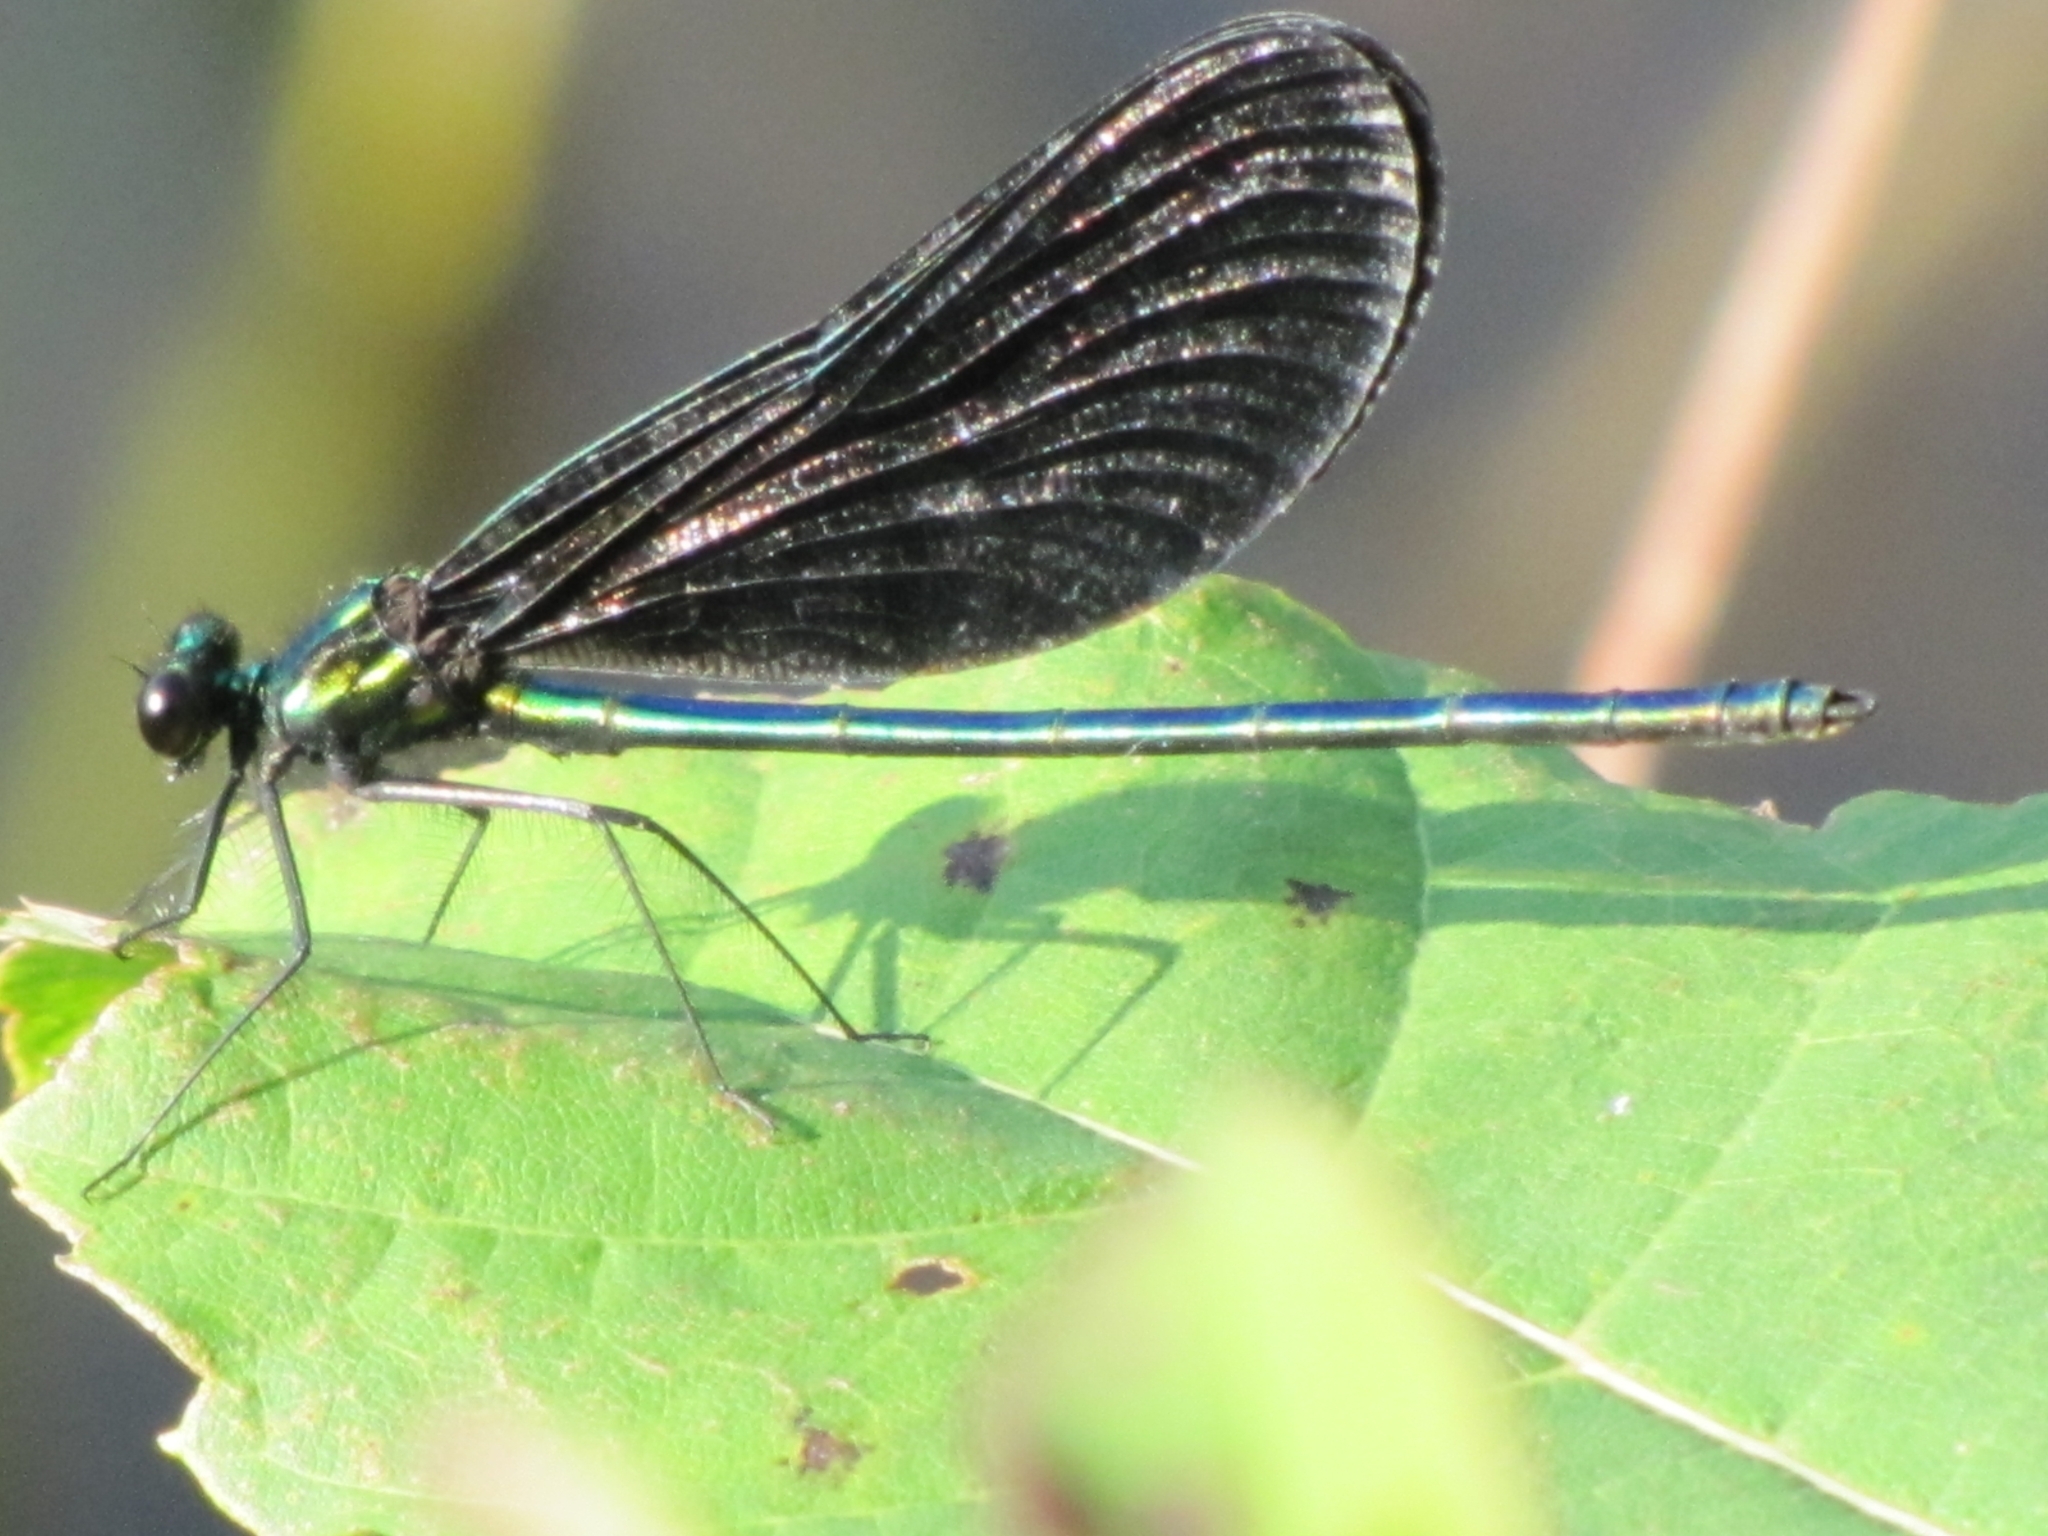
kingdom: Animalia
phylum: Arthropoda
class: Insecta
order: Odonata
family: Calopterygidae
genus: Calopteryx
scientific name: Calopteryx maculata
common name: Ebony jewelwing
